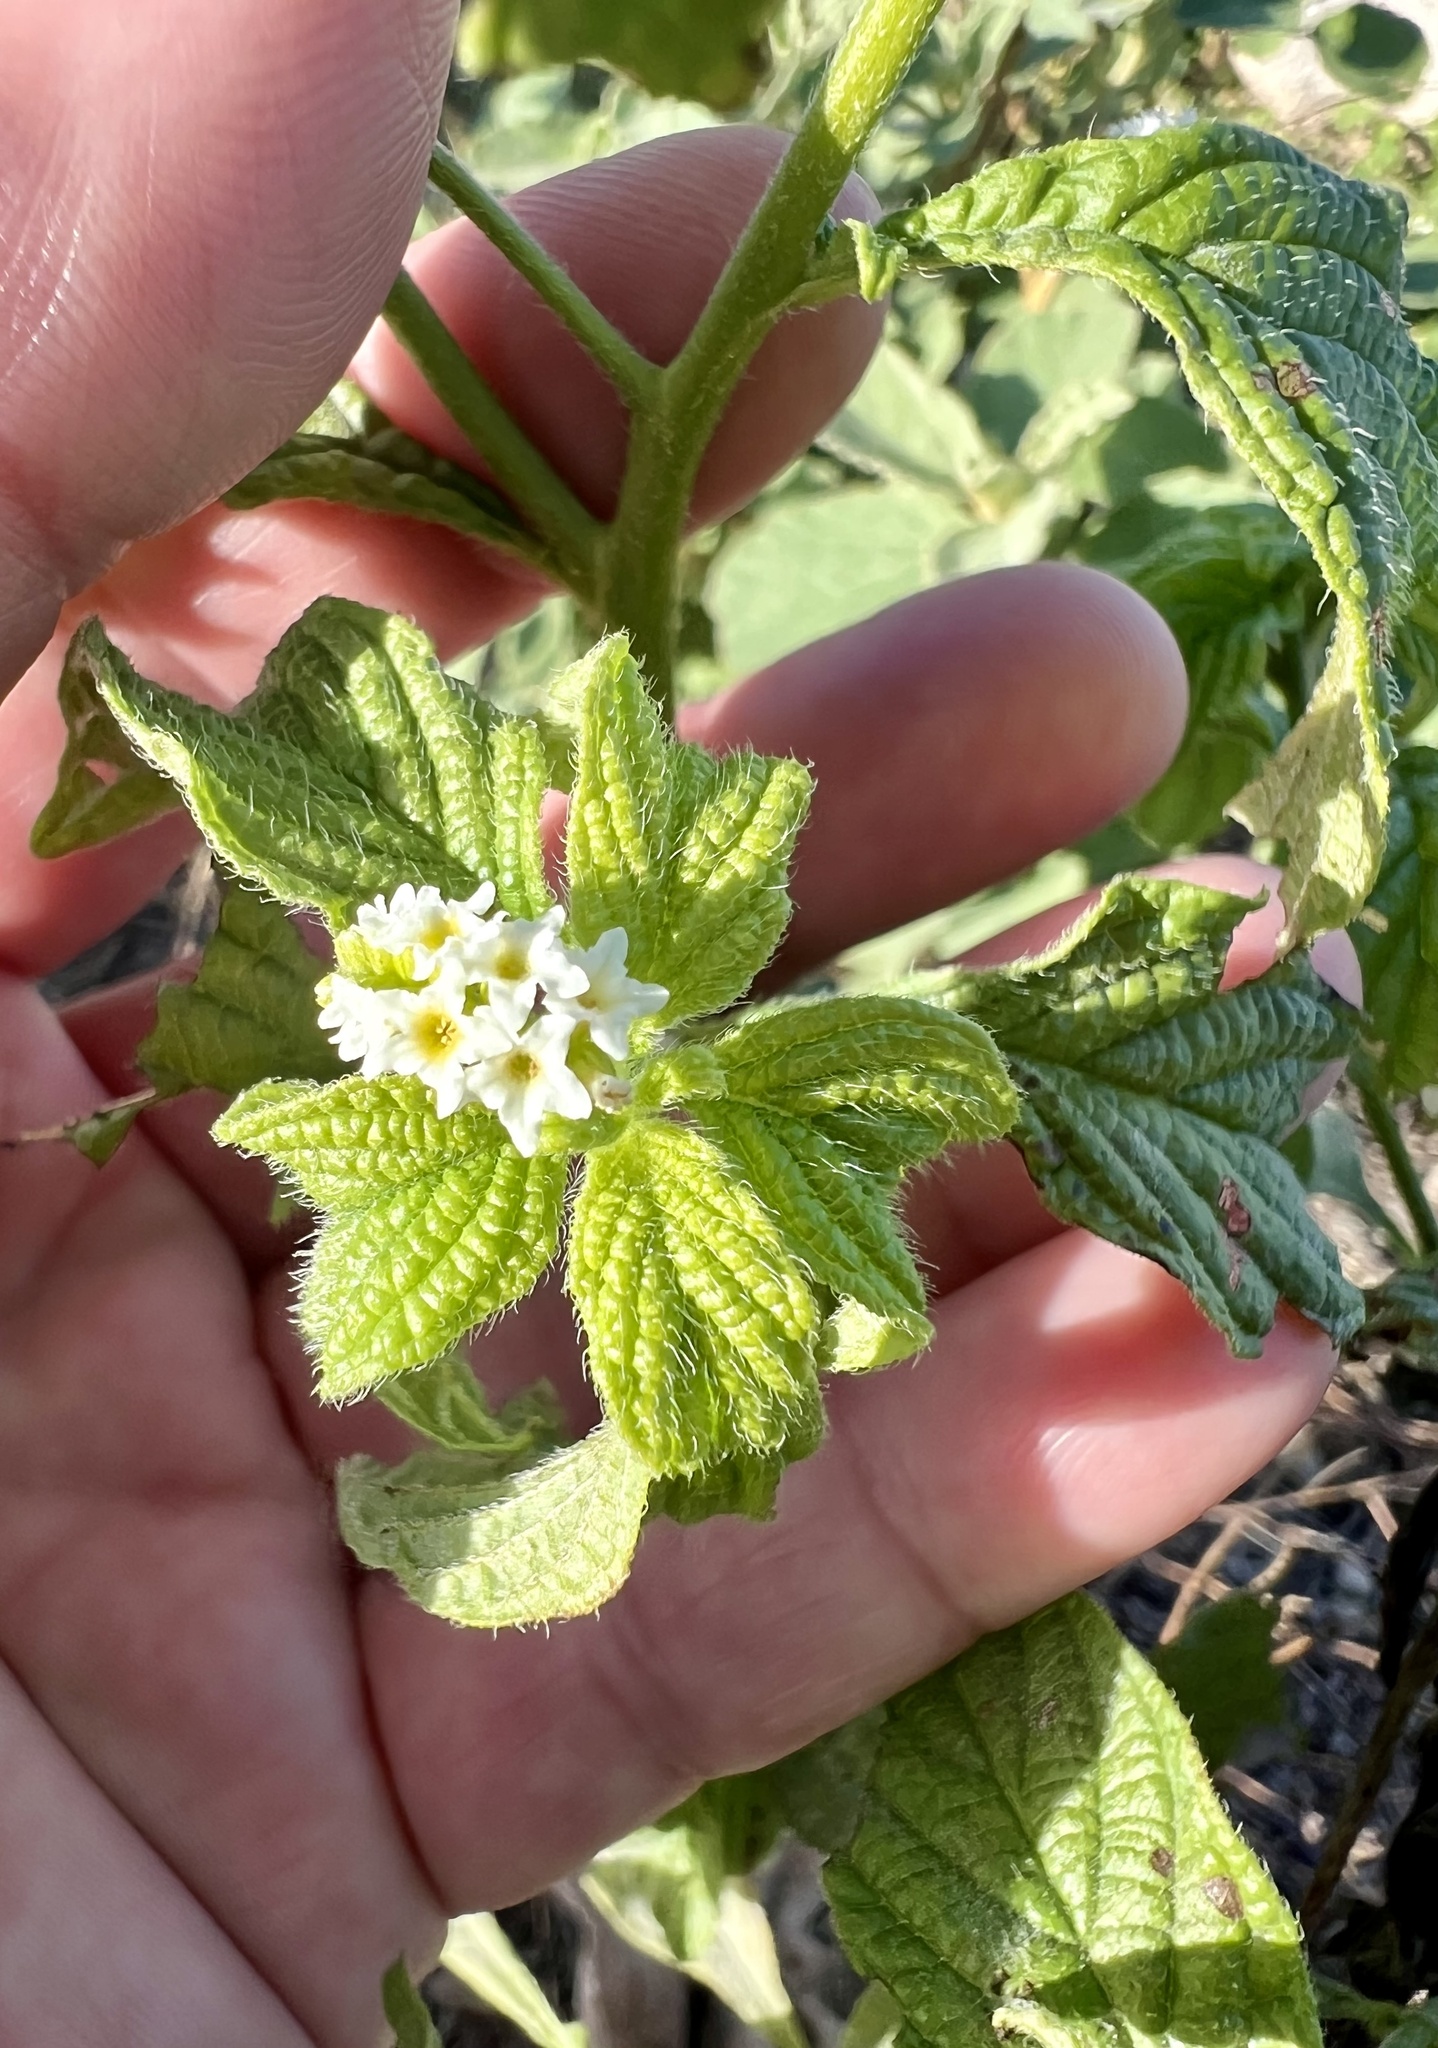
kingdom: Plantae
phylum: Tracheophyta
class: Magnoliopsida
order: Boraginales
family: Heliotropiaceae
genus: Heliotropium
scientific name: Heliotropium angiospermum
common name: Eye bright
